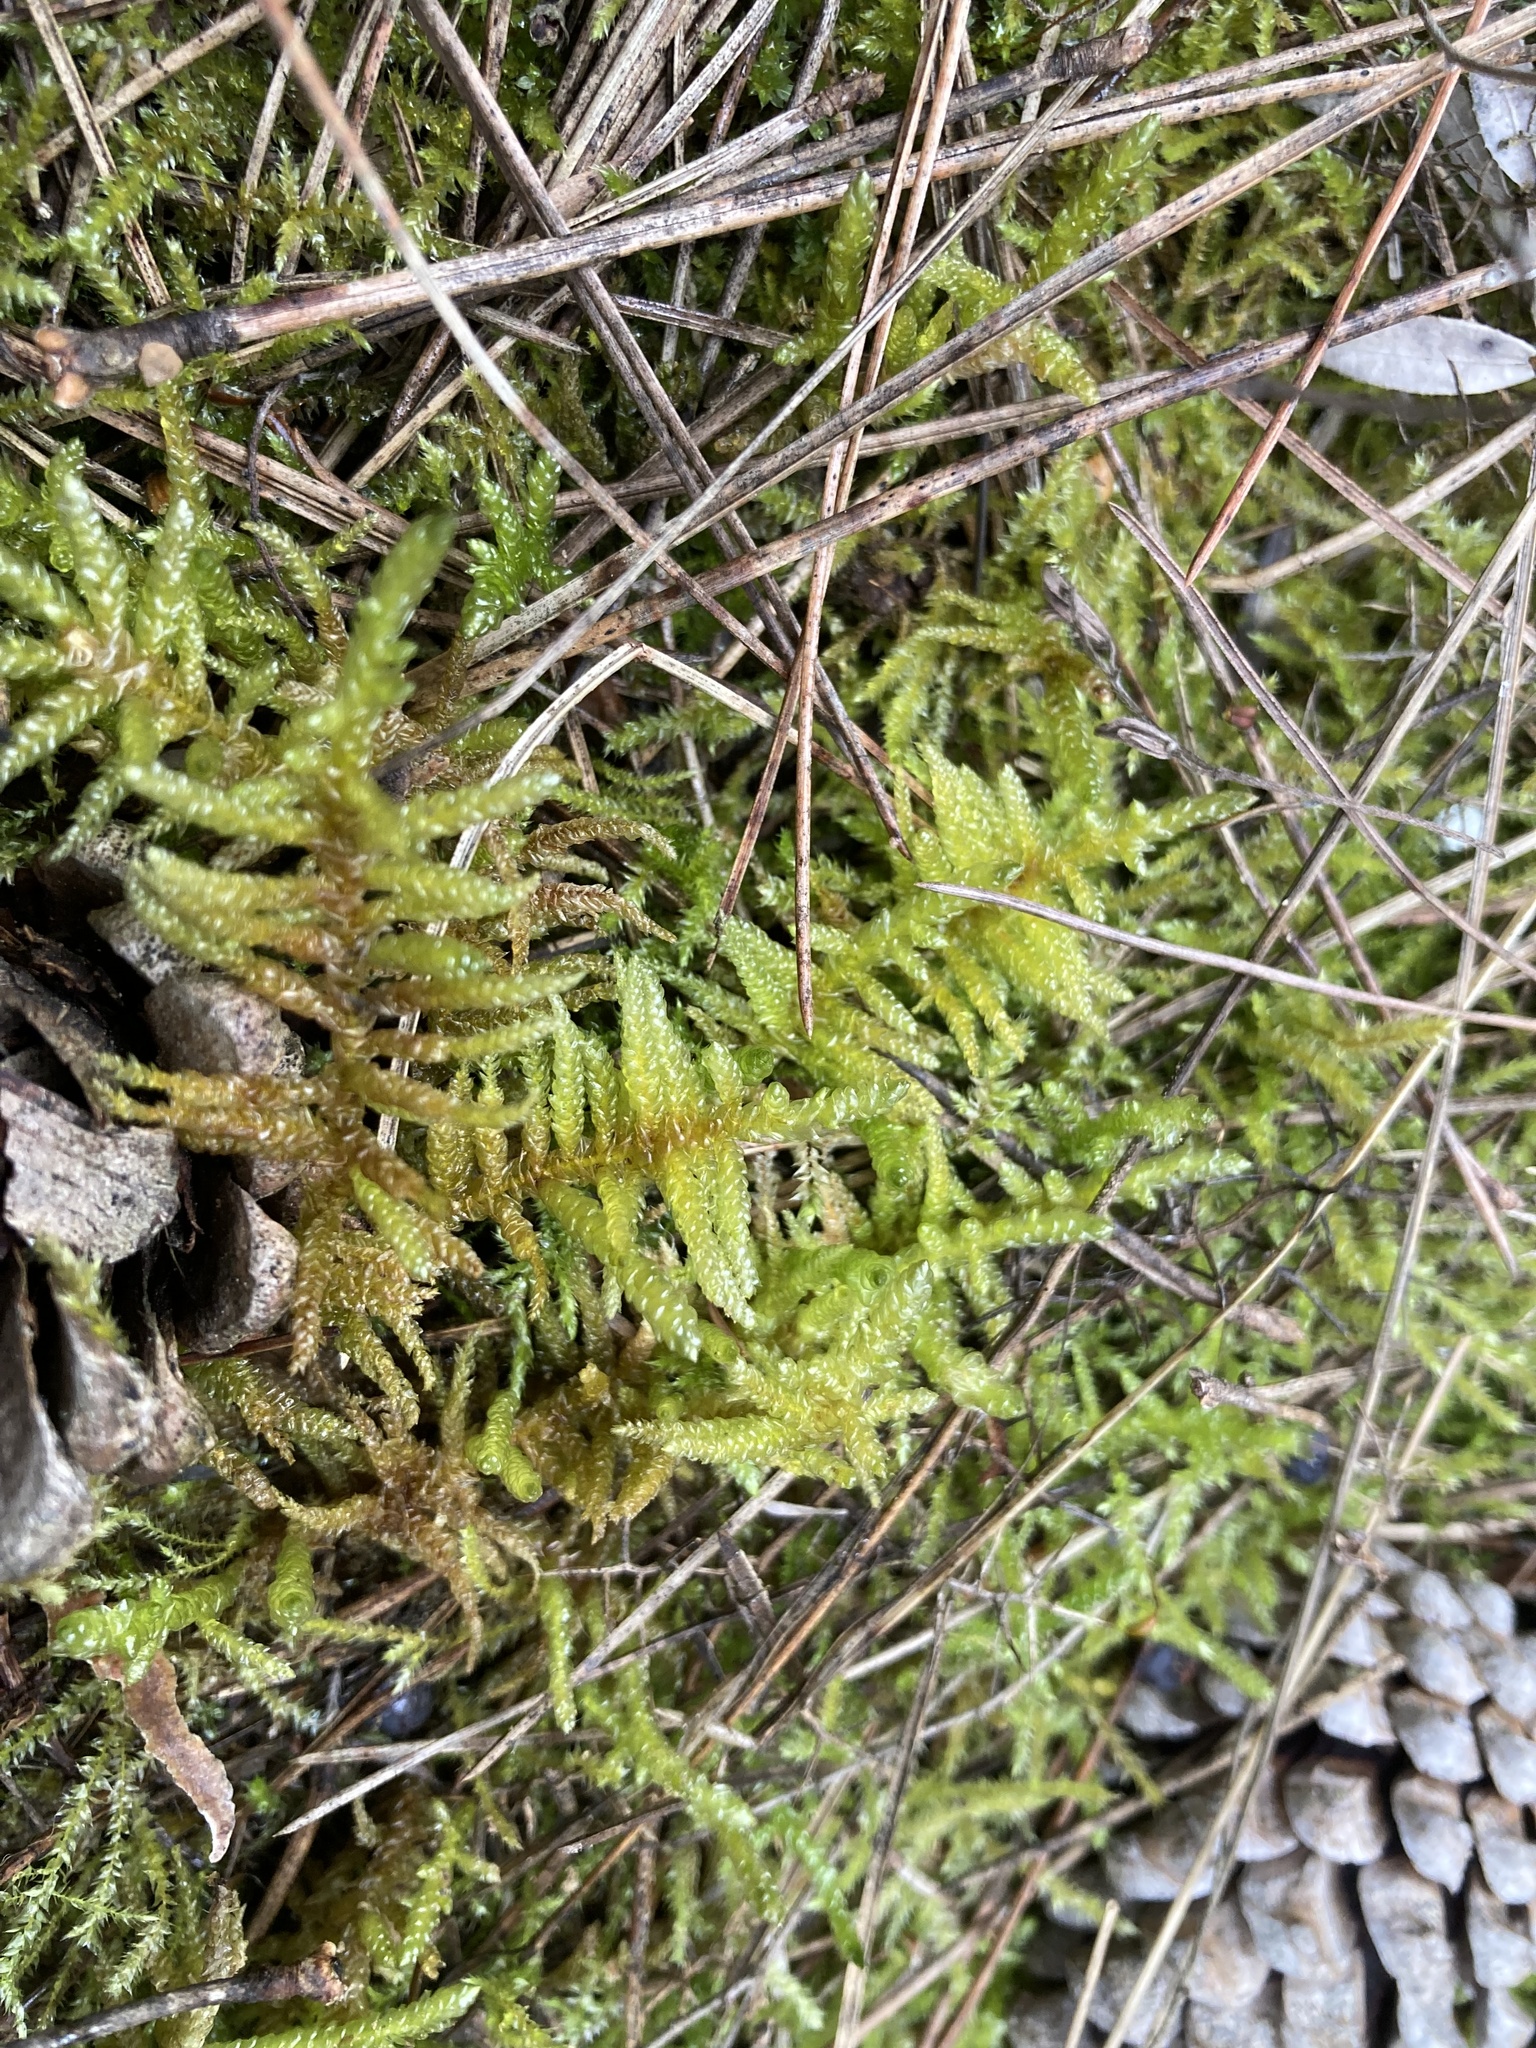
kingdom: Plantae
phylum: Bryophyta
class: Bryopsida
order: Hypnales
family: Brachytheciaceae
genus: Pseudoscleropodium
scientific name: Pseudoscleropodium purum
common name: Neat feather-moss
